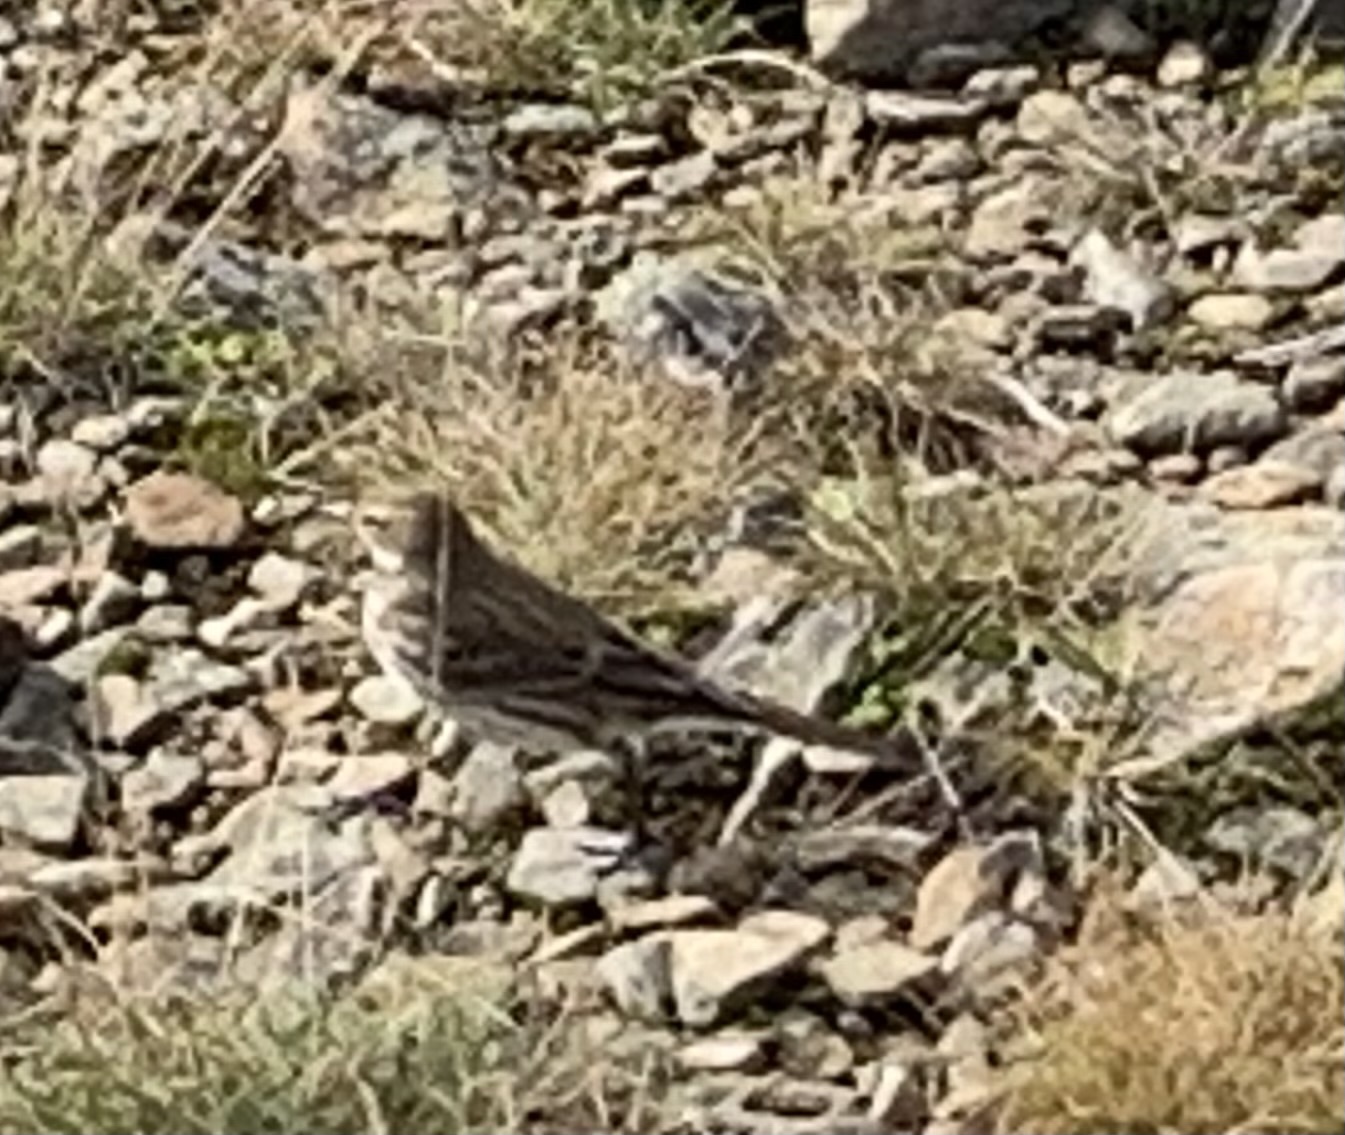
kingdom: Animalia
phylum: Chordata
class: Aves
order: Passeriformes
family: Motacillidae
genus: Anthus
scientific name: Anthus spinoletta
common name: Water pipit
